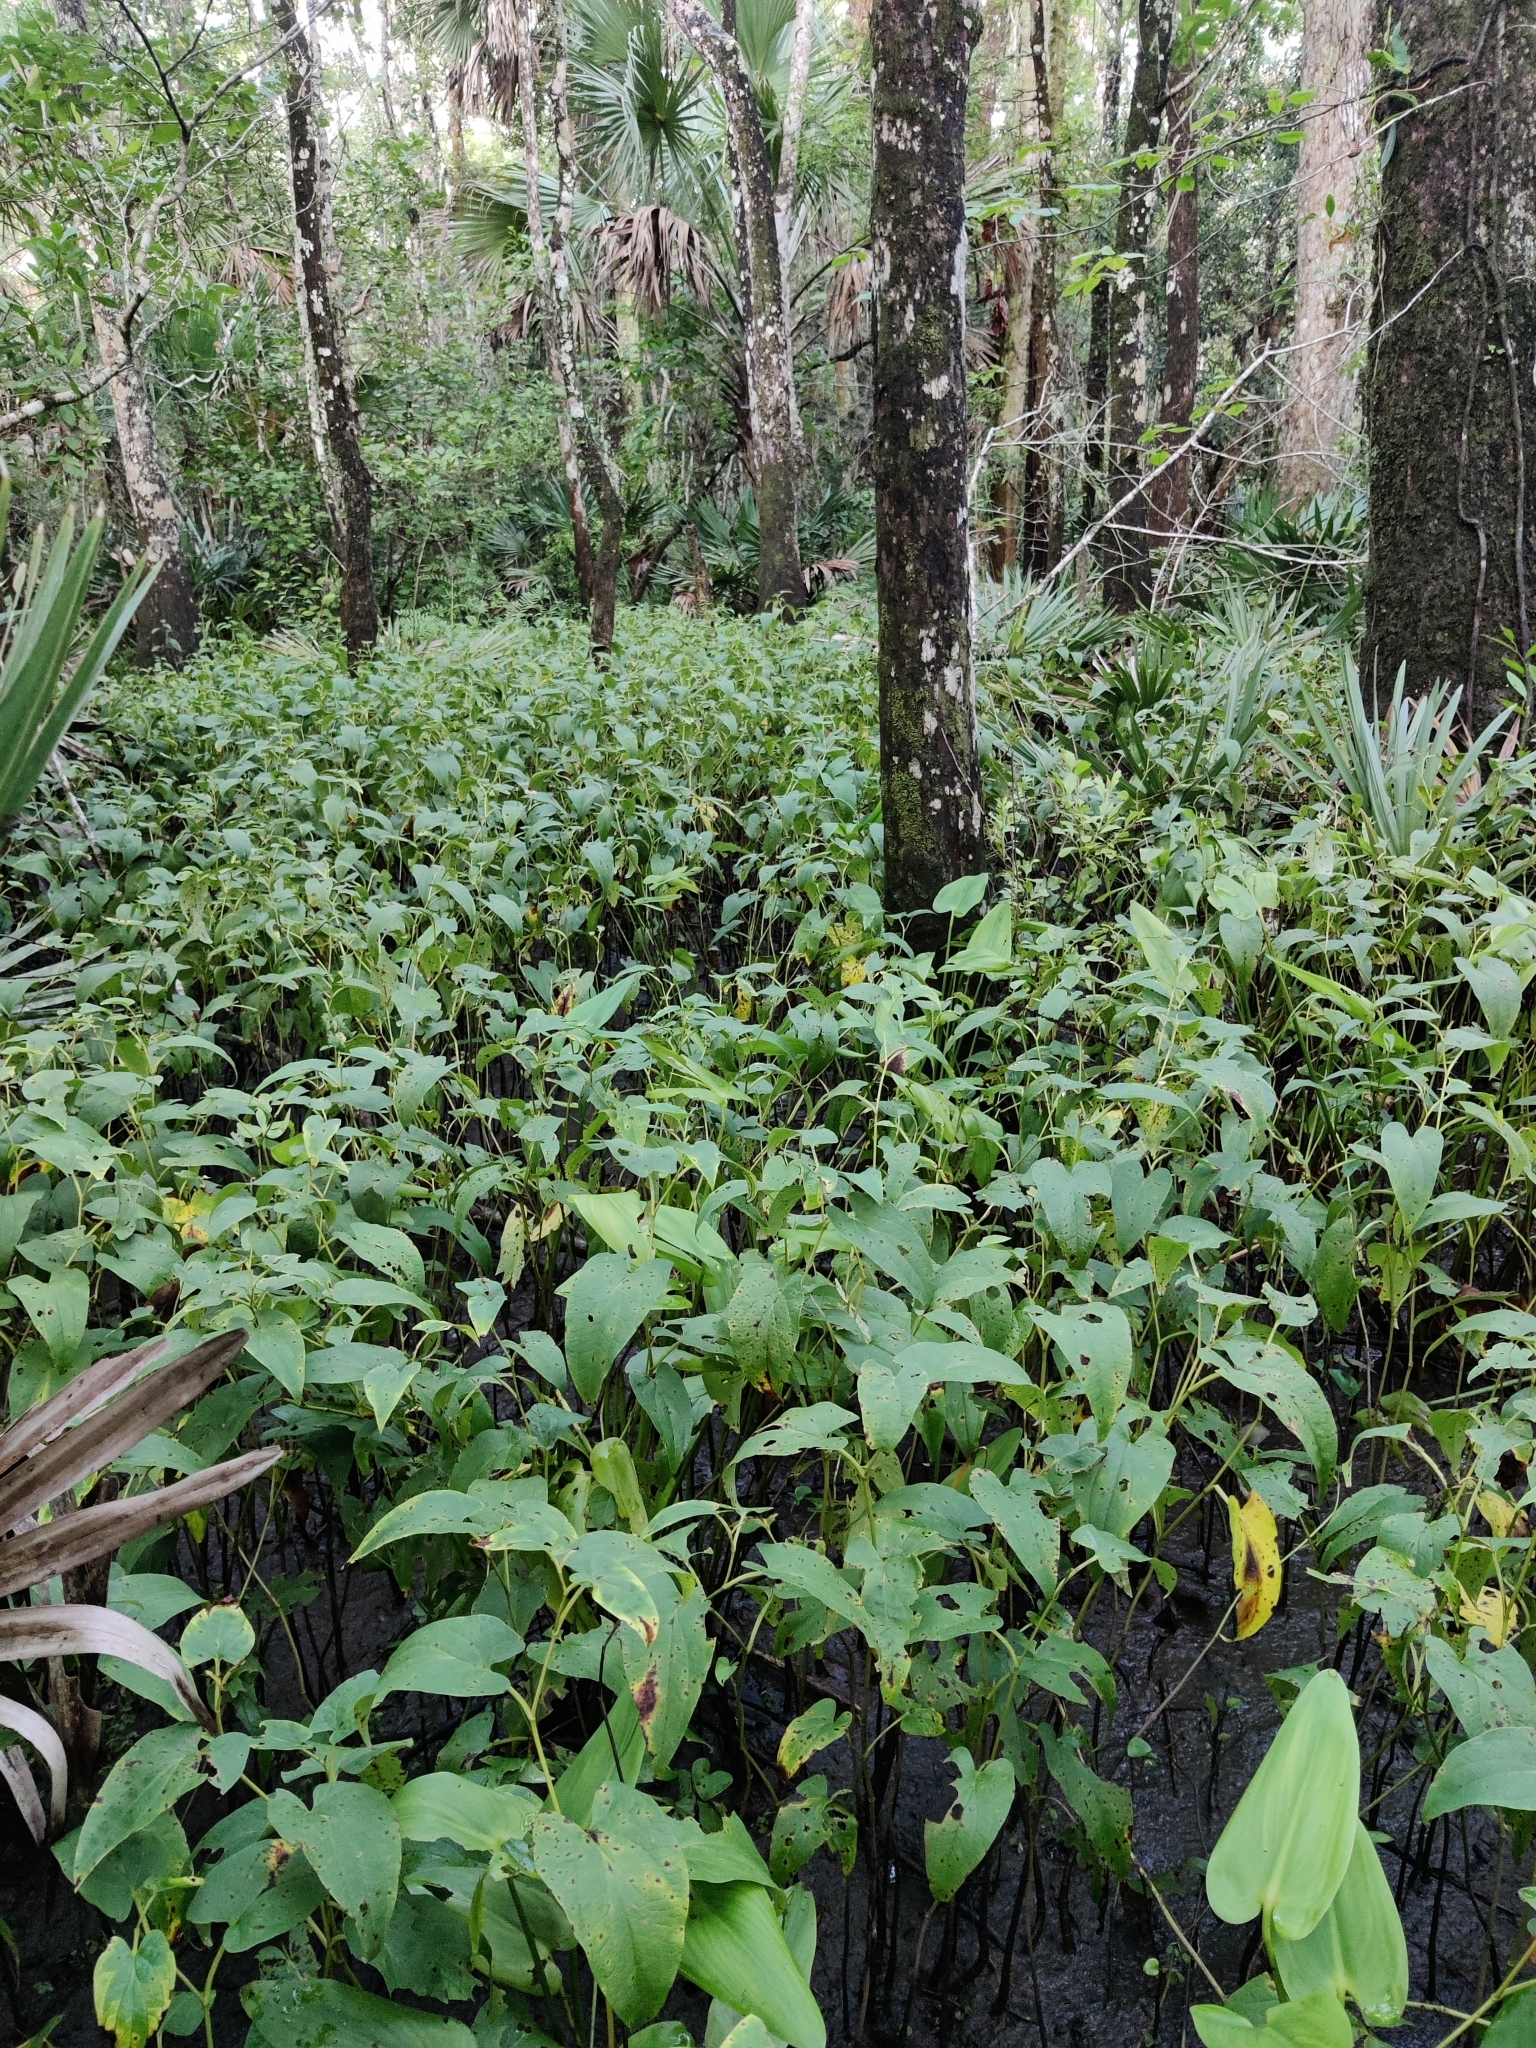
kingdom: Plantae
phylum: Tracheophyta
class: Magnoliopsida
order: Piperales
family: Saururaceae
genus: Saururus
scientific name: Saururus cernuus
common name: Lizard's-tail
